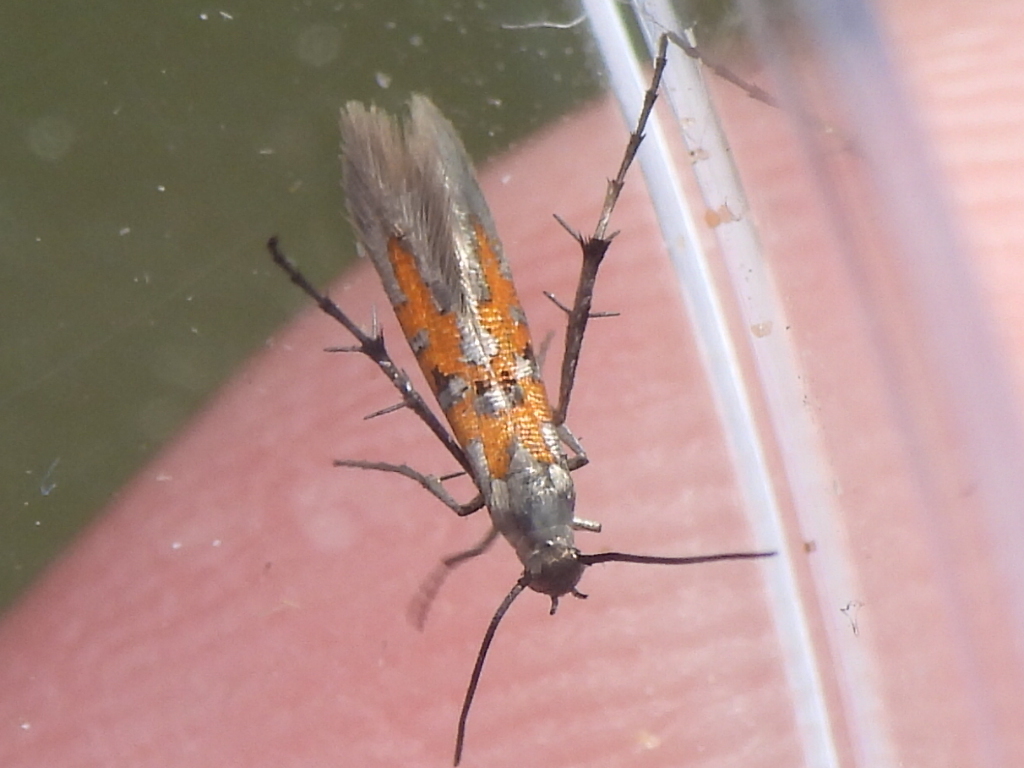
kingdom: Animalia
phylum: Arthropoda
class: Insecta
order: Lepidoptera
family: Heliodinidae
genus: Heliodines
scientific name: Heliodines
